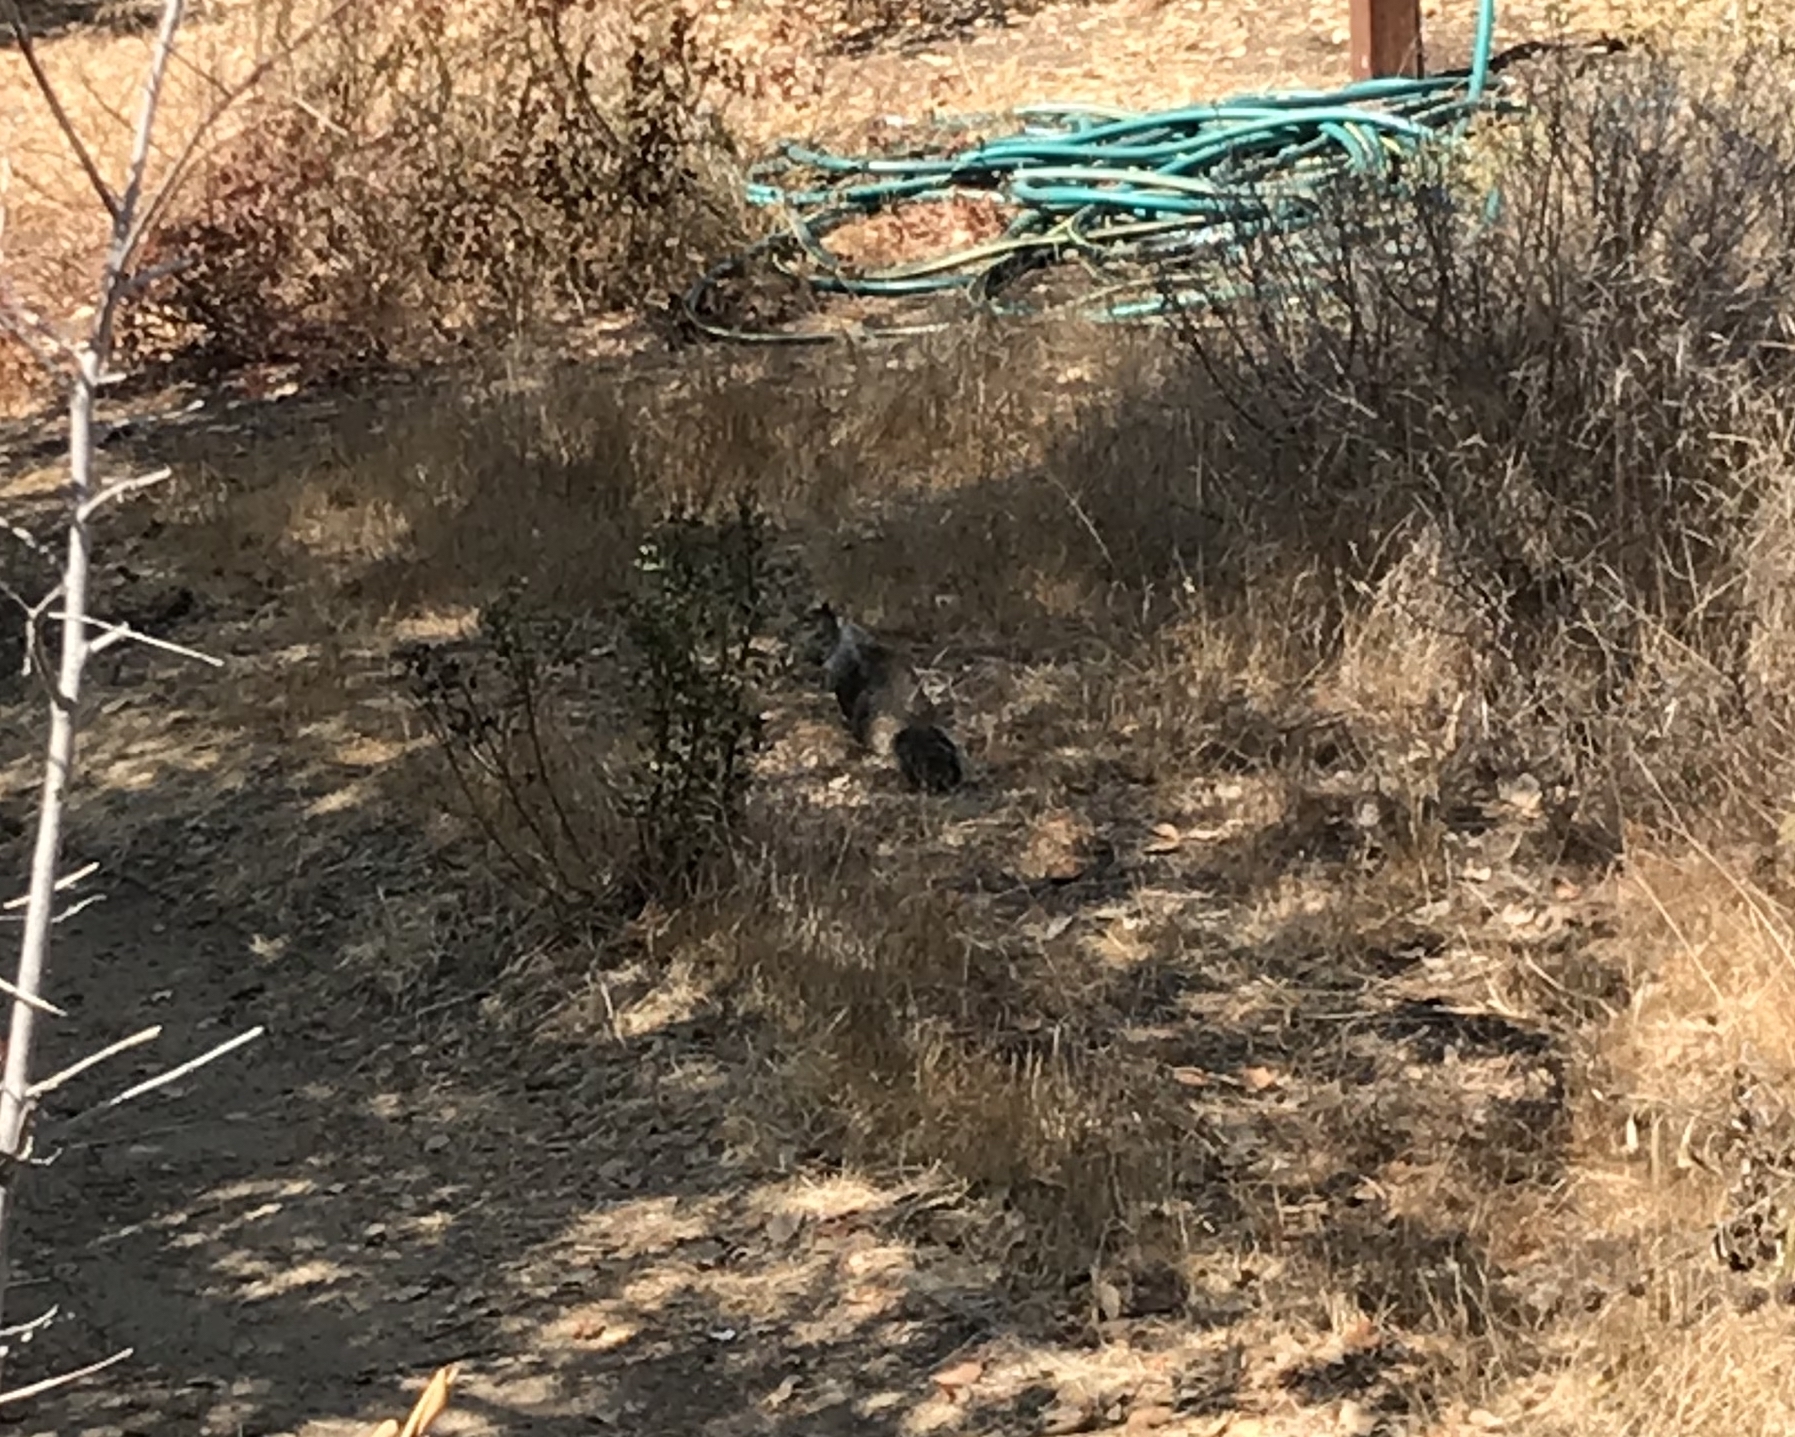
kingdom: Animalia
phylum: Chordata
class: Mammalia
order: Rodentia
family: Sciuridae
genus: Otospermophilus
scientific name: Otospermophilus beecheyi
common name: California ground squirrel
